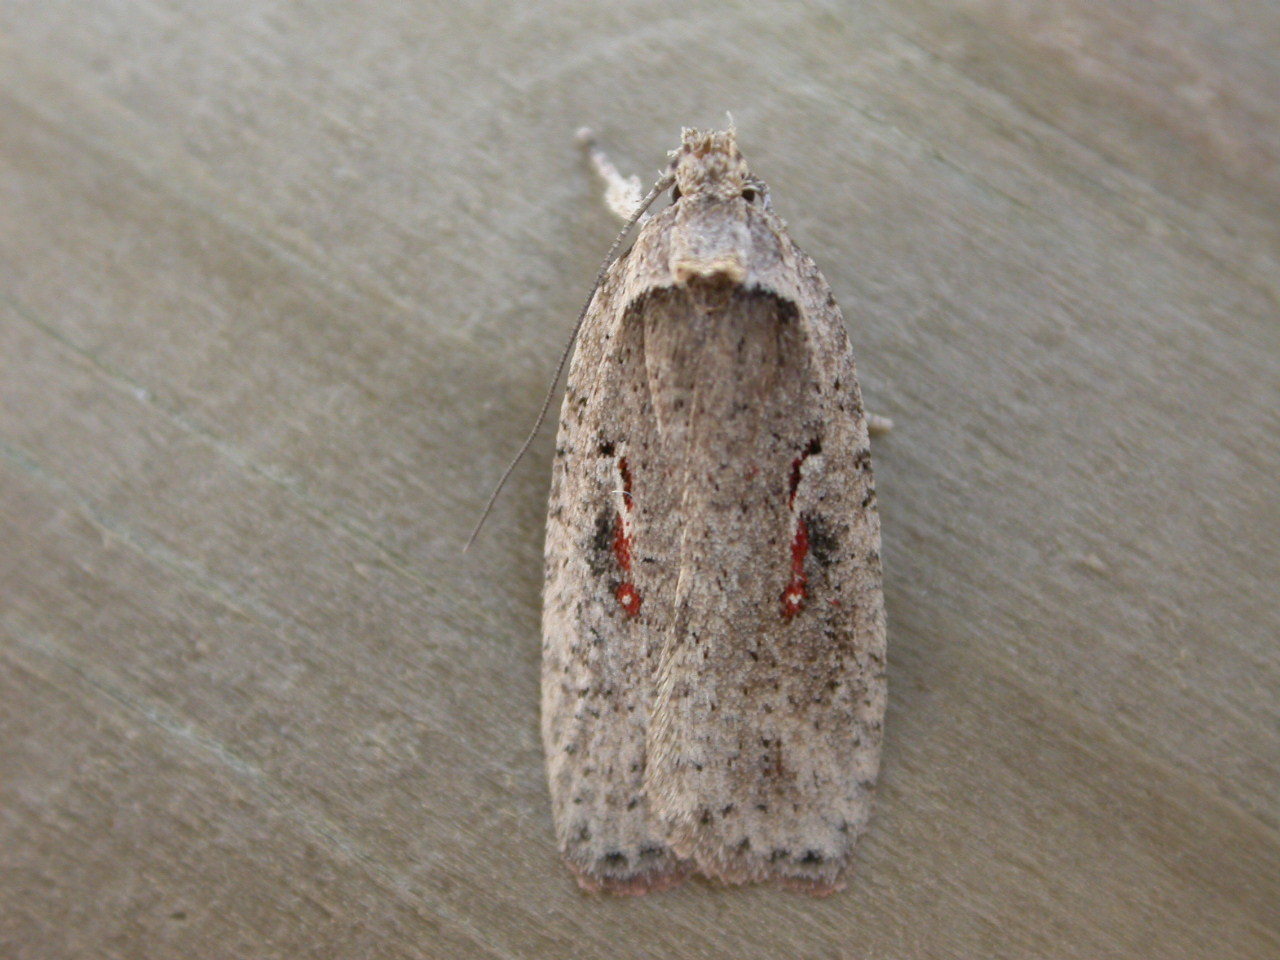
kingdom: Animalia
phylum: Arthropoda
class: Insecta
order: Lepidoptera
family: Depressariidae
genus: Agonopterix
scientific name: Agonopterix ocellana
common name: Red-letter flat-body
